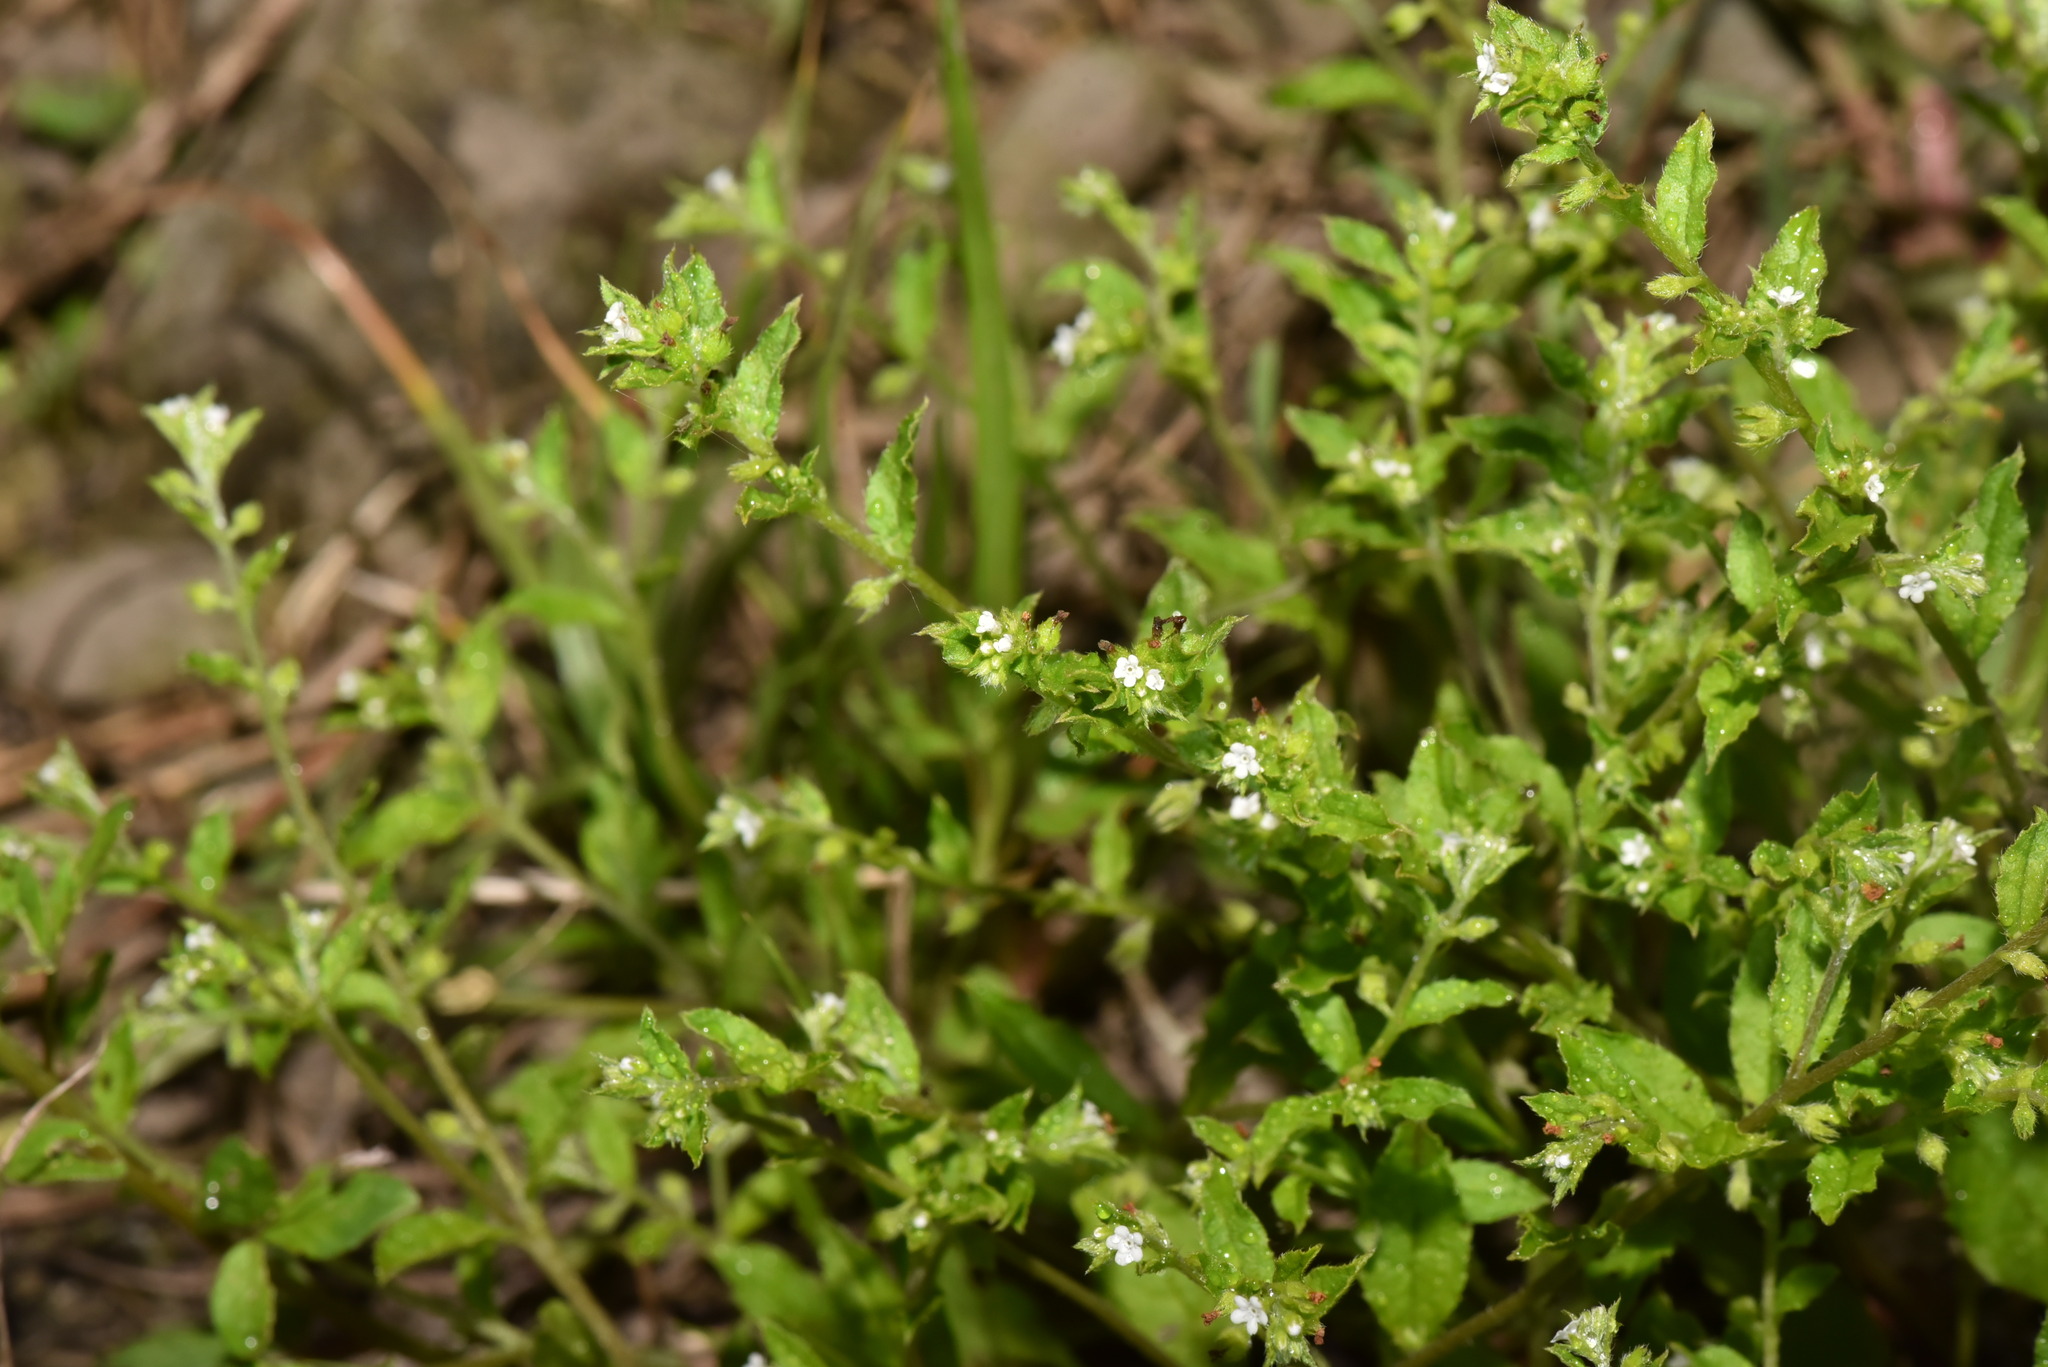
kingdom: Plantae
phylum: Tracheophyta
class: Magnoliopsida
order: Boraginales
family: Boraginaceae
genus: Bothriospermum
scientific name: Bothriospermum zeylanicum
